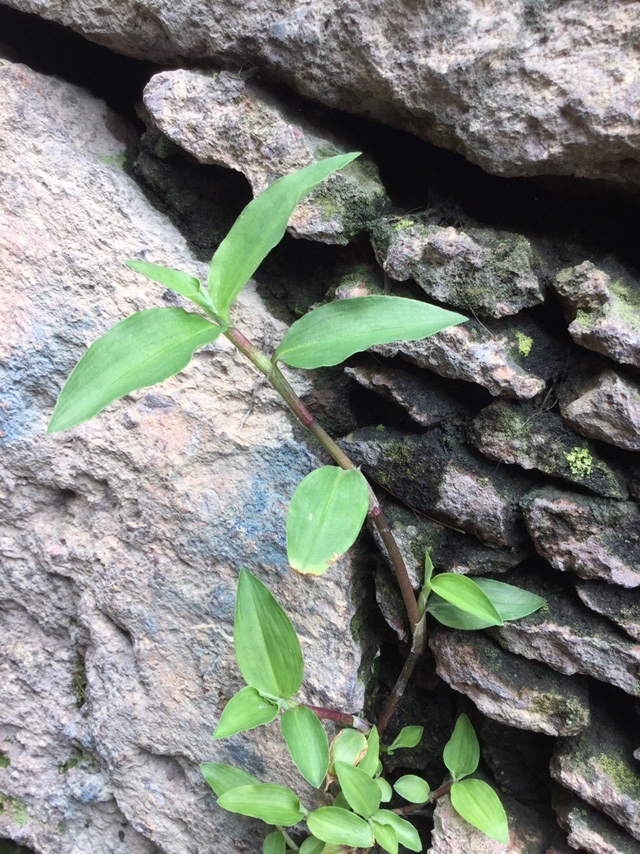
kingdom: Plantae
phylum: Tracheophyta
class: Liliopsida
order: Commelinales
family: Commelinaceae
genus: Commelina
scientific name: Commelina diffusa
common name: Climbing dayflower
